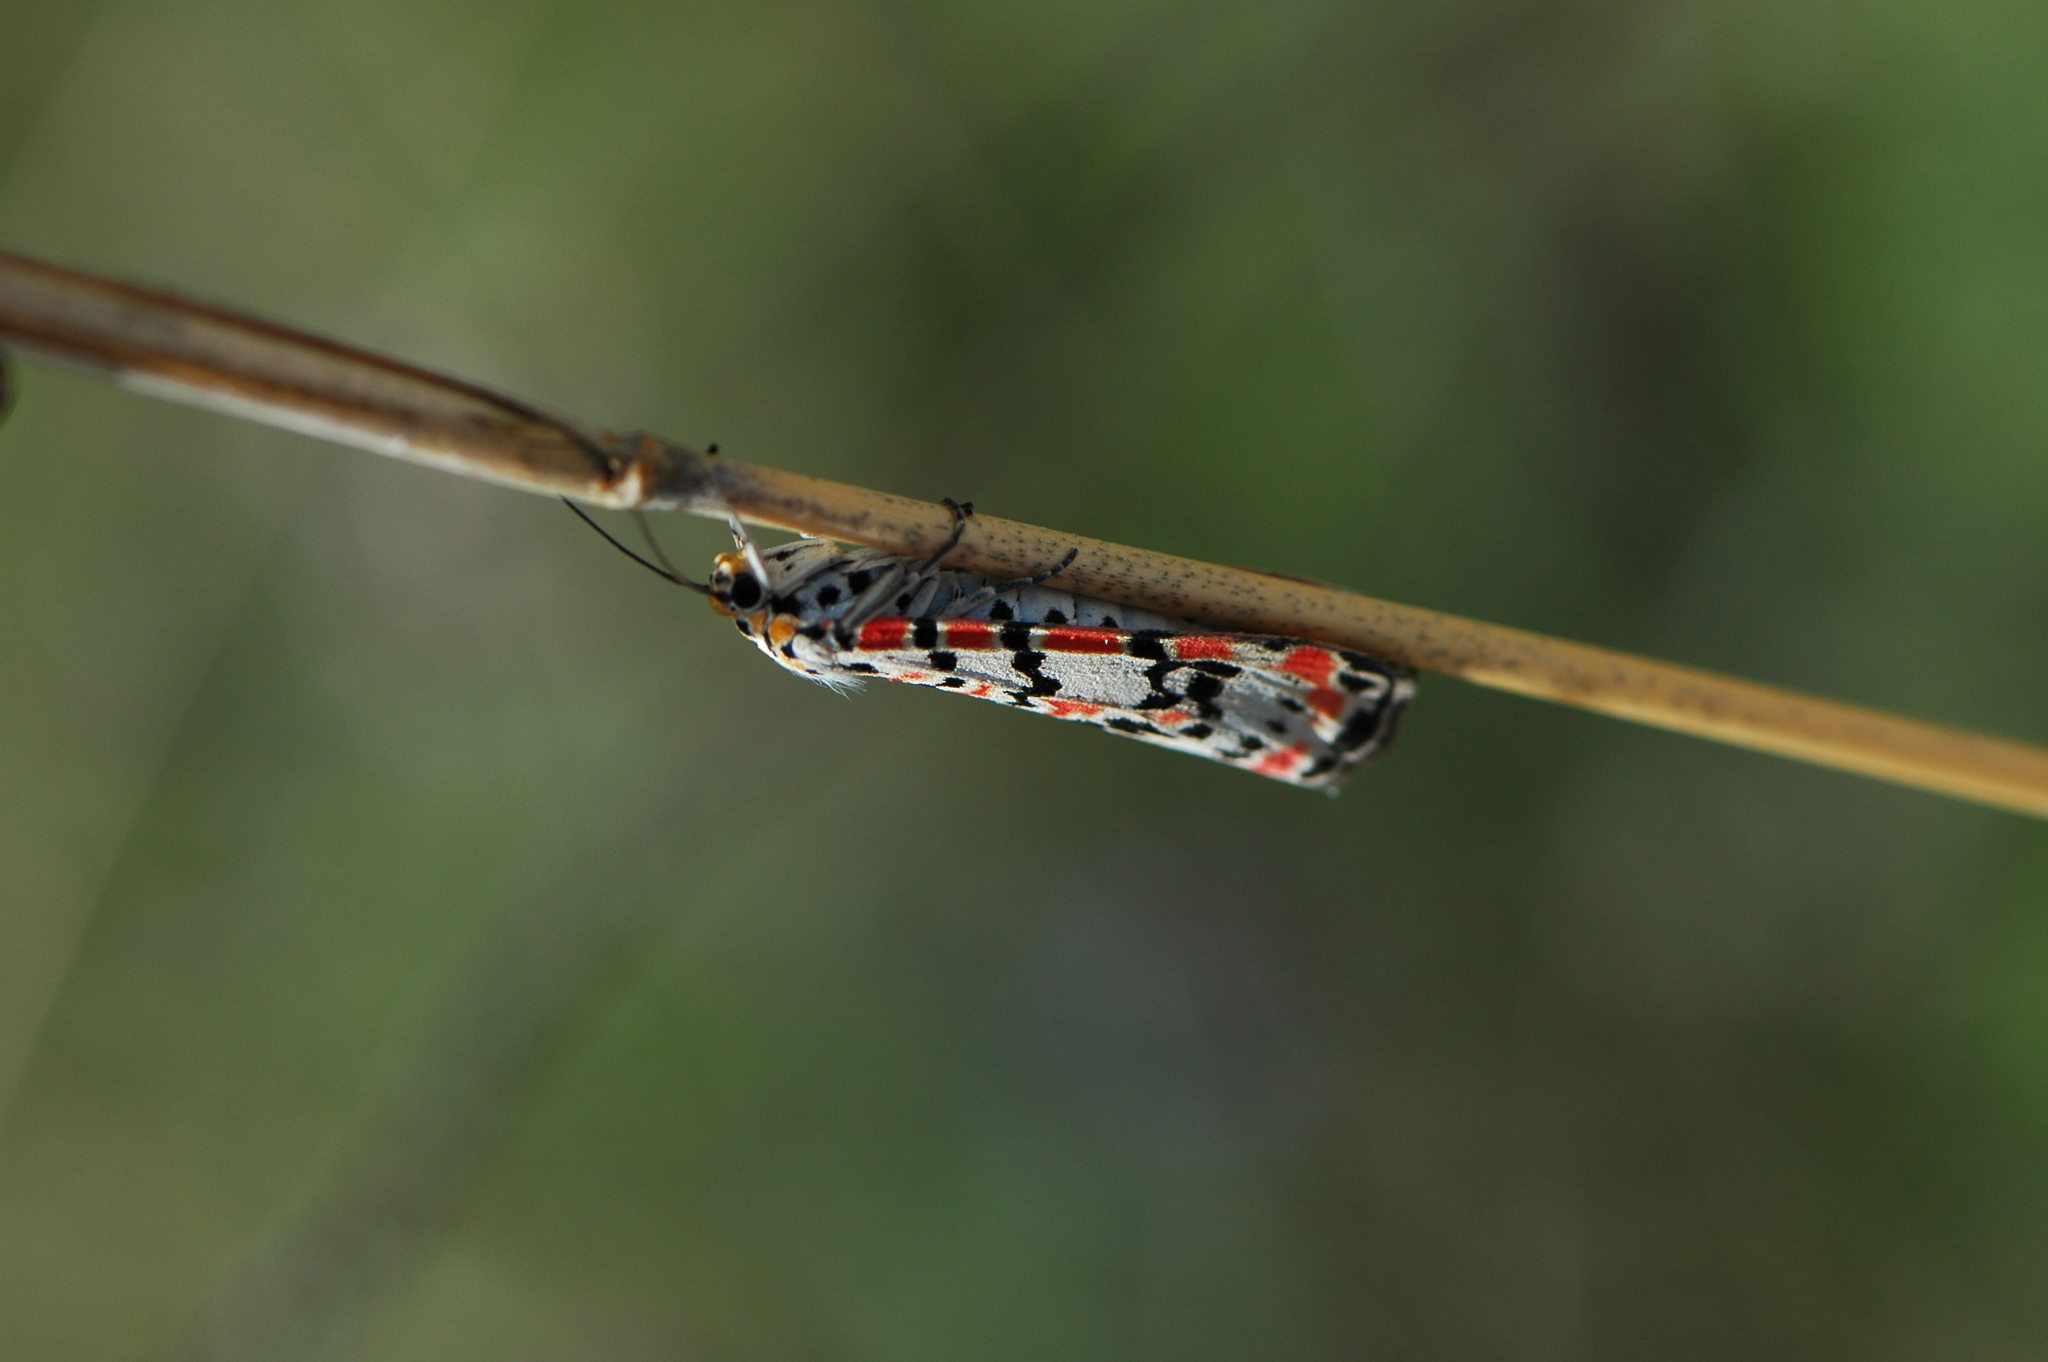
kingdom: Animalia
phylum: Arthropoda
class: Insecta
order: Lepidoptera
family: Erebidae
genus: Utetheisa
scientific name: Utetheisa pulchella
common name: Crimson speckled
